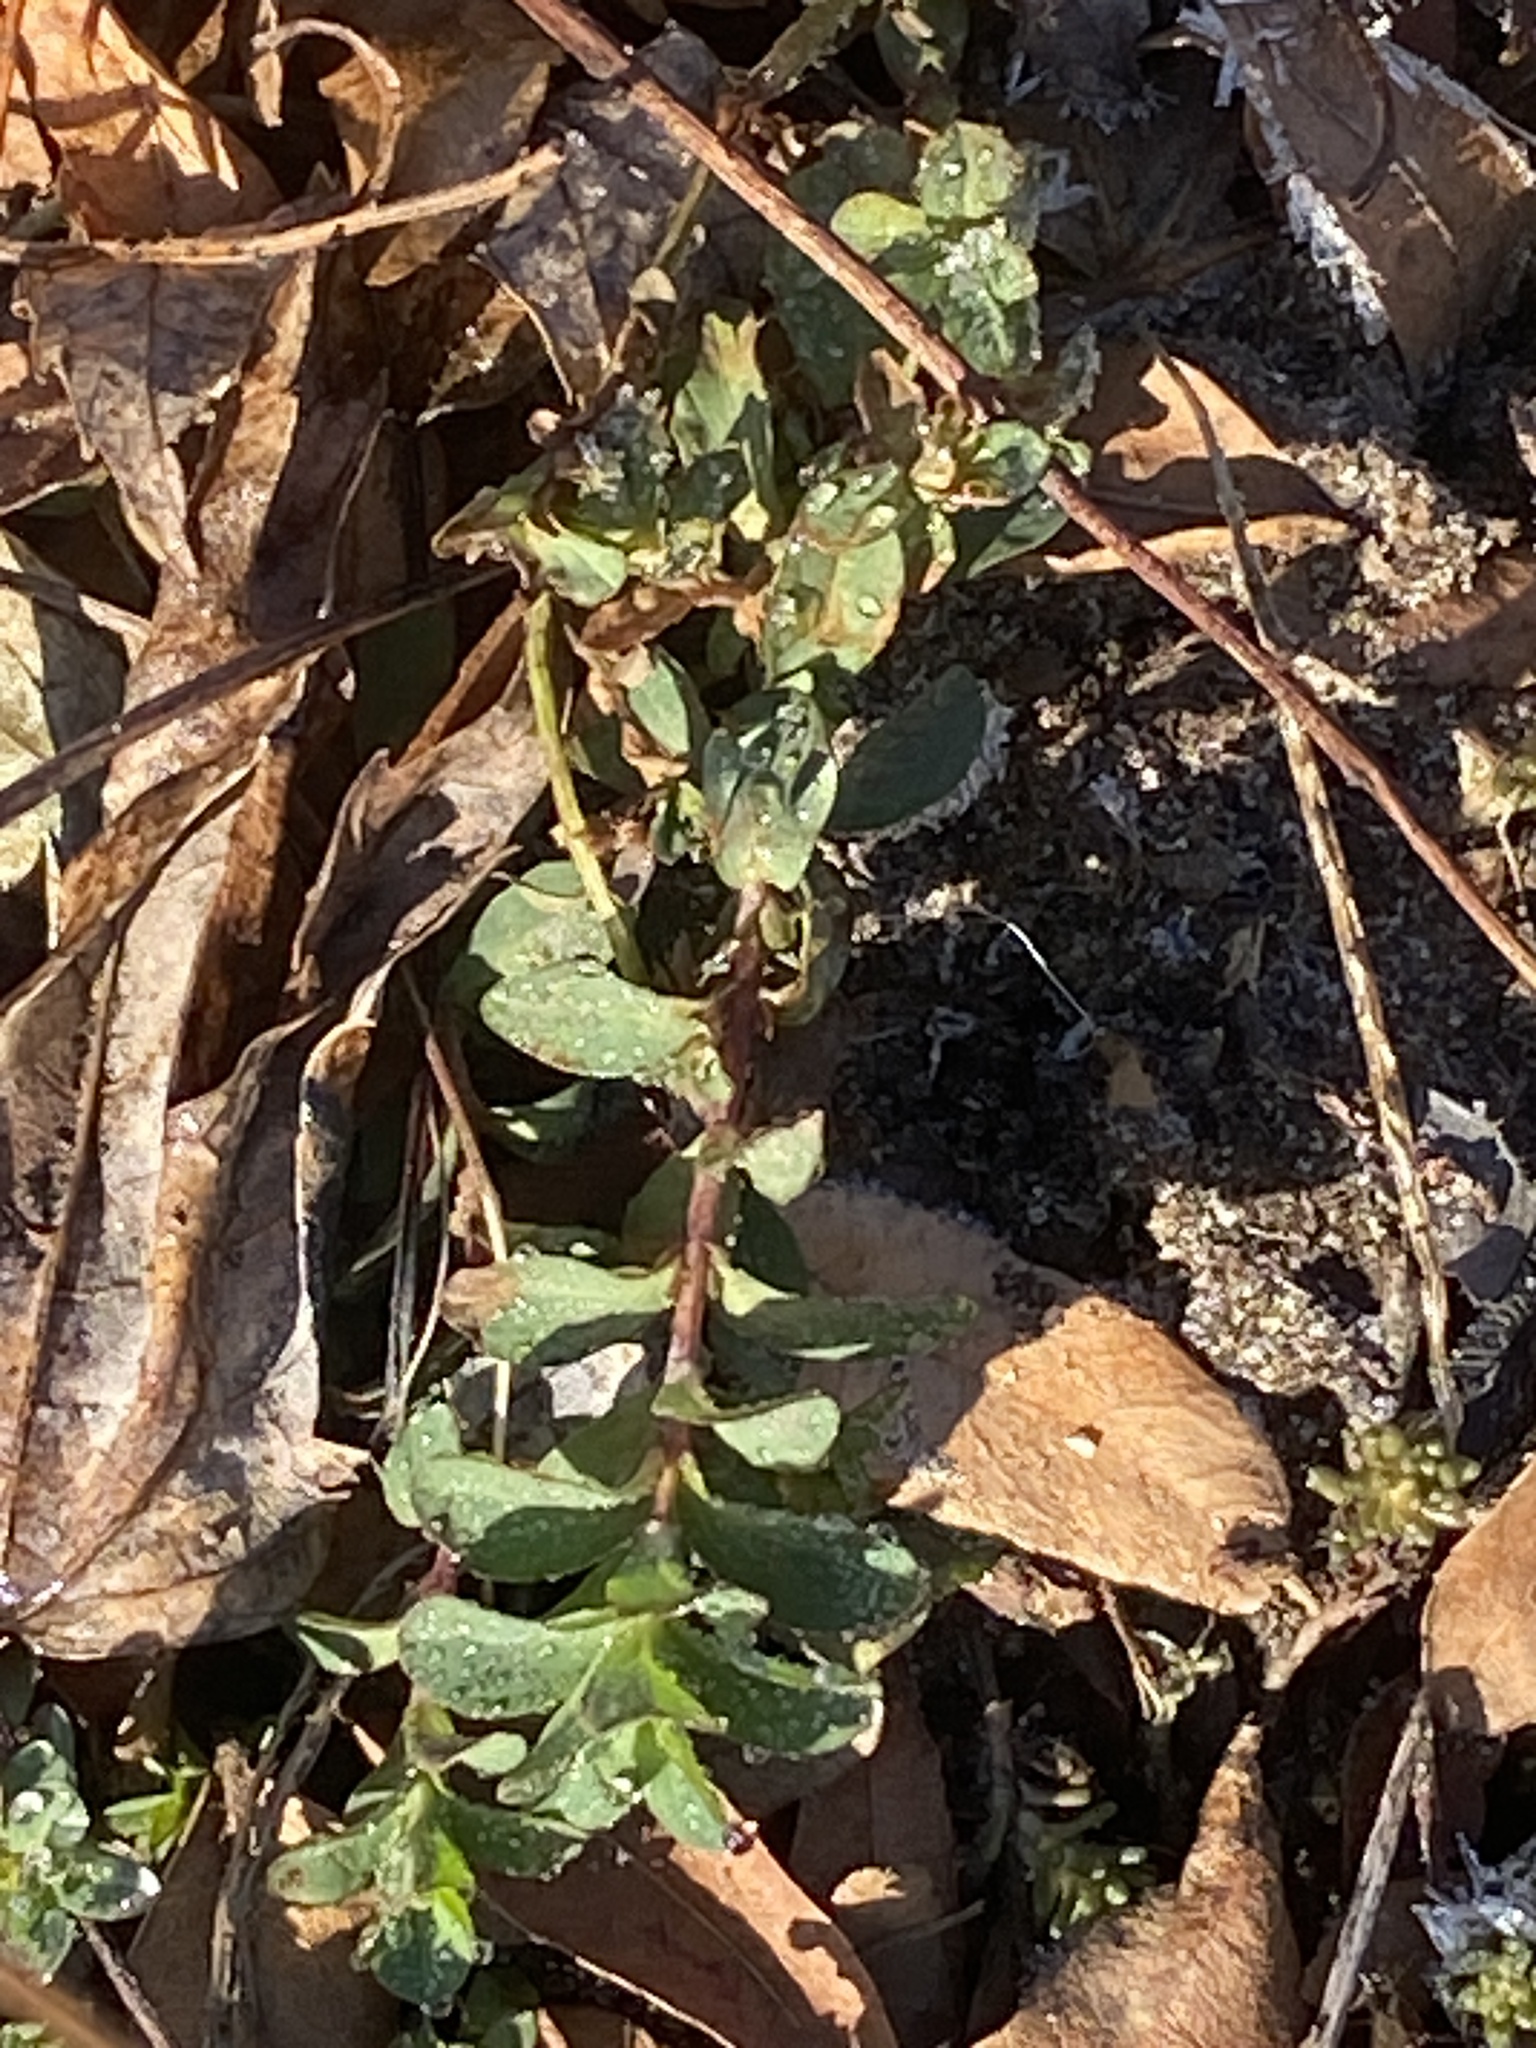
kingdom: Plantae
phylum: Tracheophyta
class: Magnoliopsida
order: Malpighiales
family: Hypericaceae
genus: Hypericum
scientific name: Hypericum perforatum
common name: Common st. johnswort
